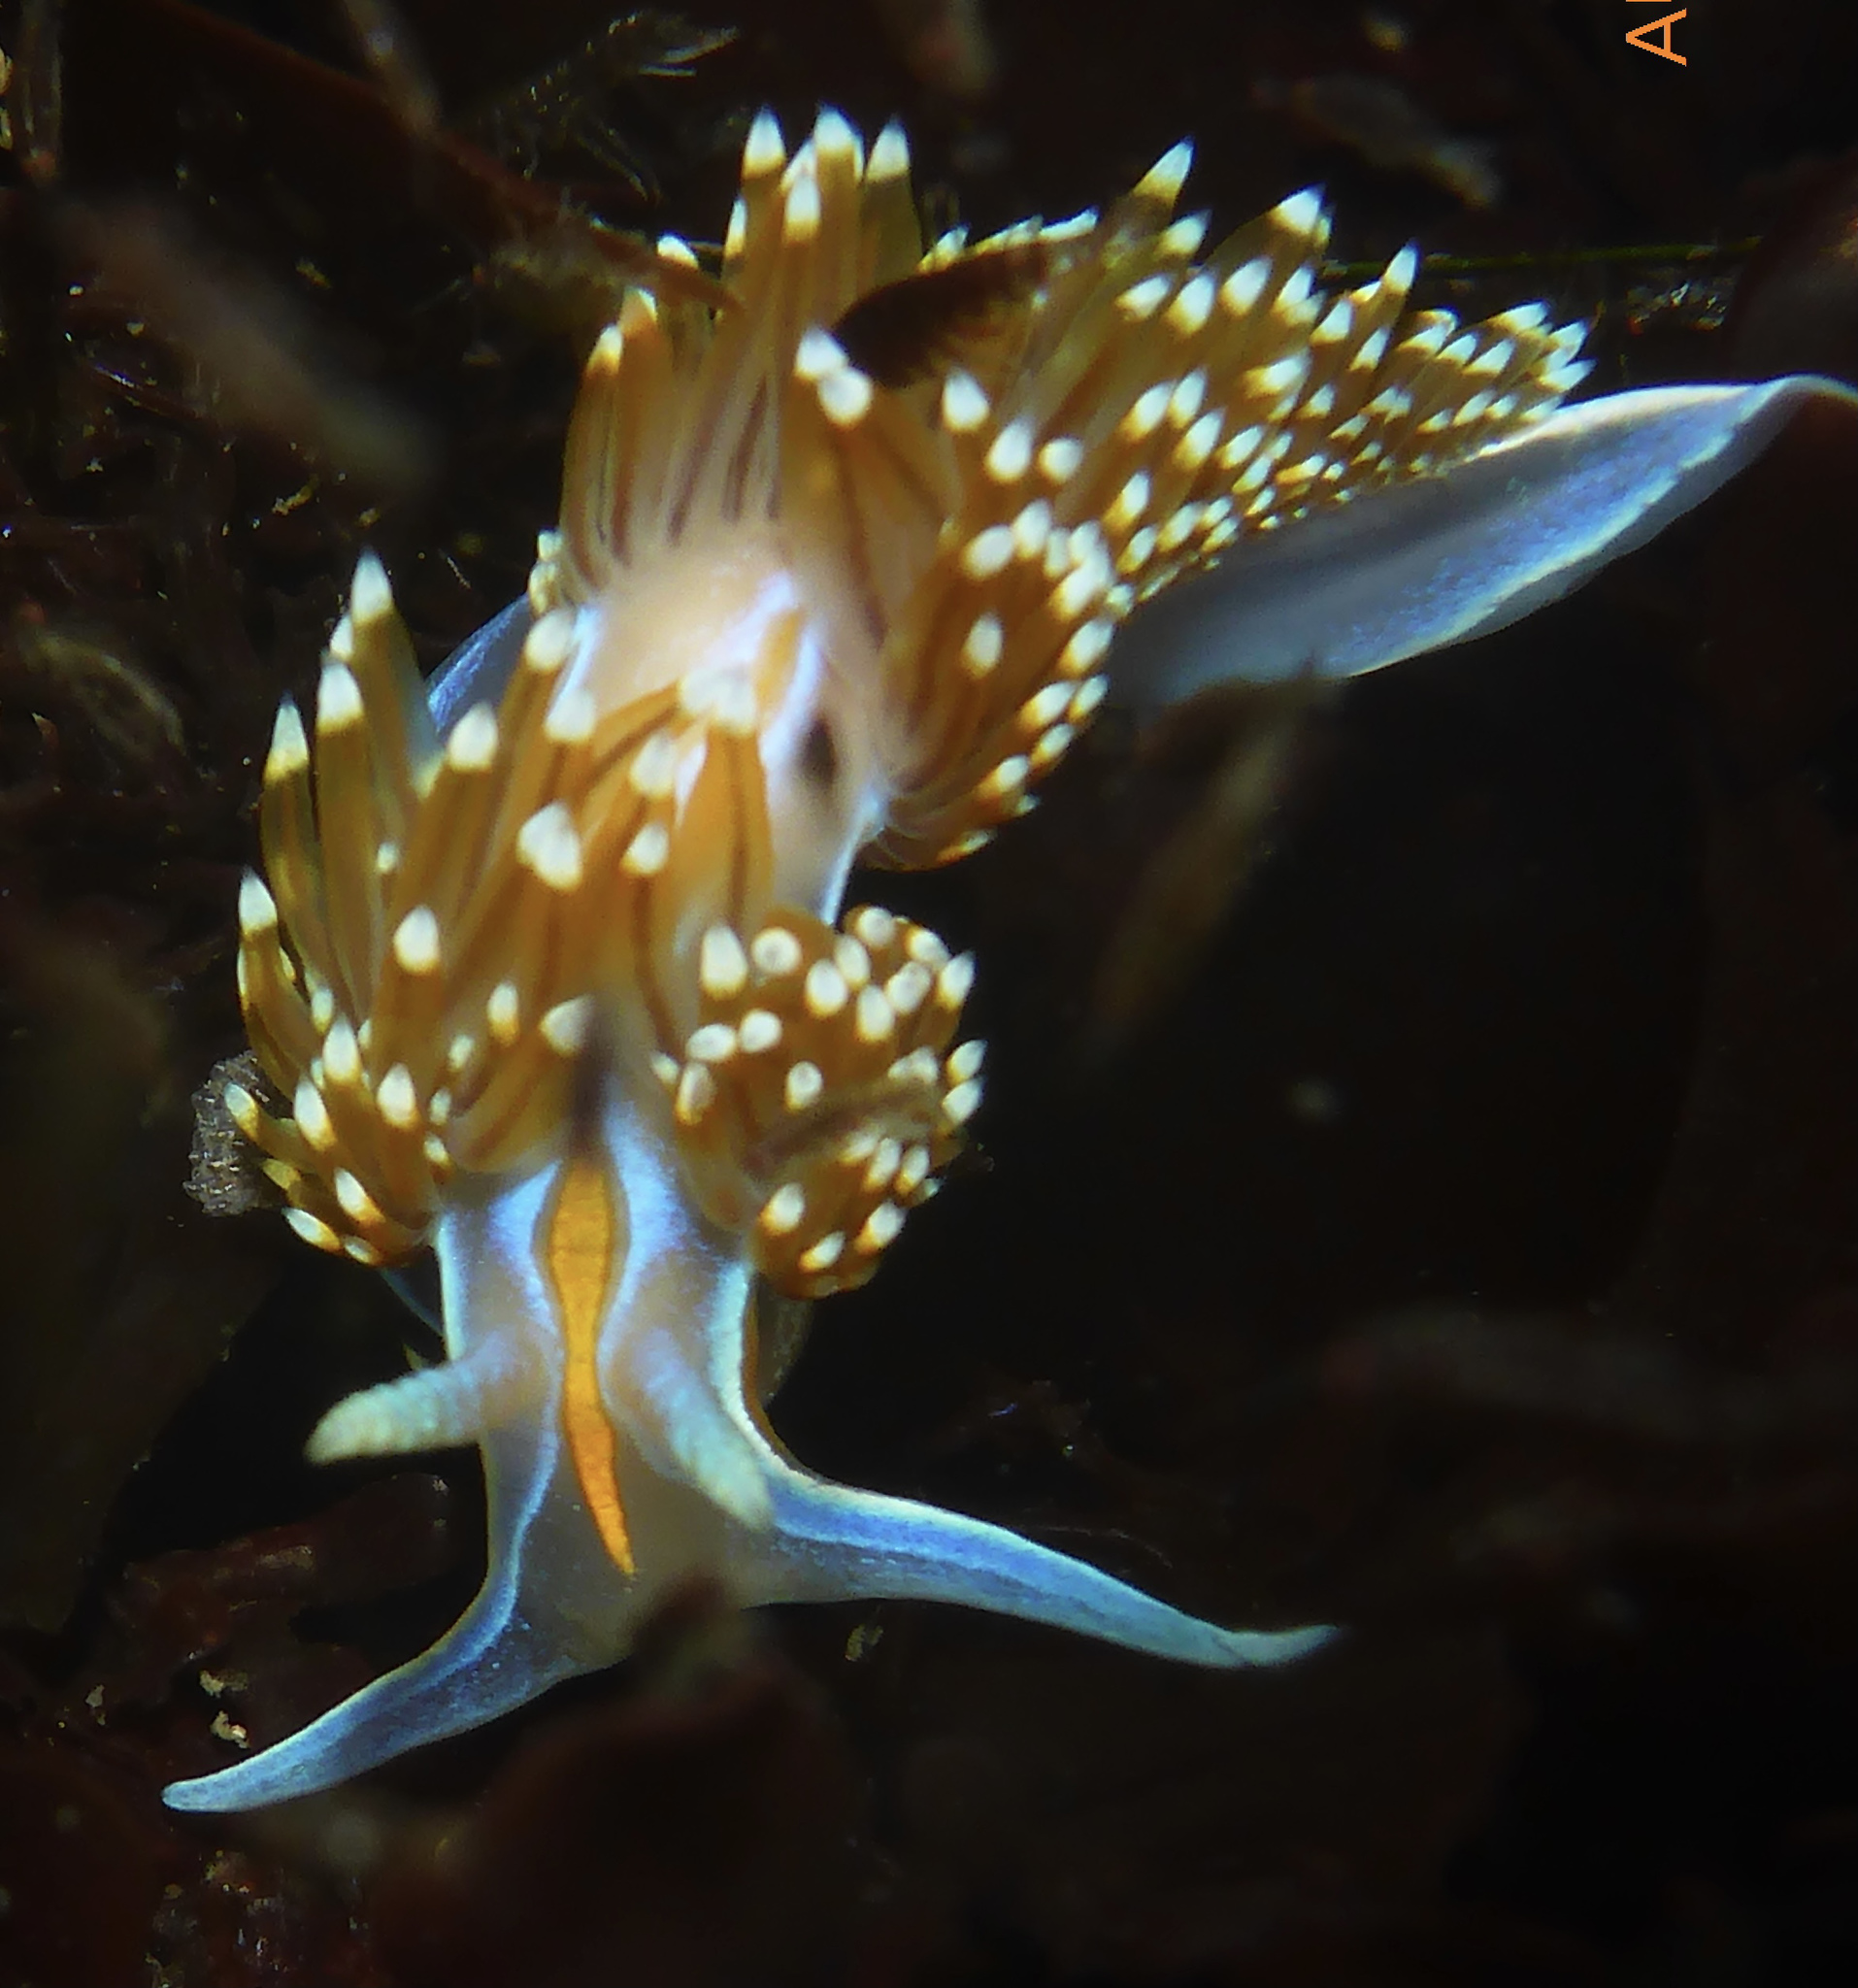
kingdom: Animalia
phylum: Mollusca
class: Gastropoda
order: Nudibranchia
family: Myrrhinidae
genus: Hermissenda
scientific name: Hermissenda opalescens
